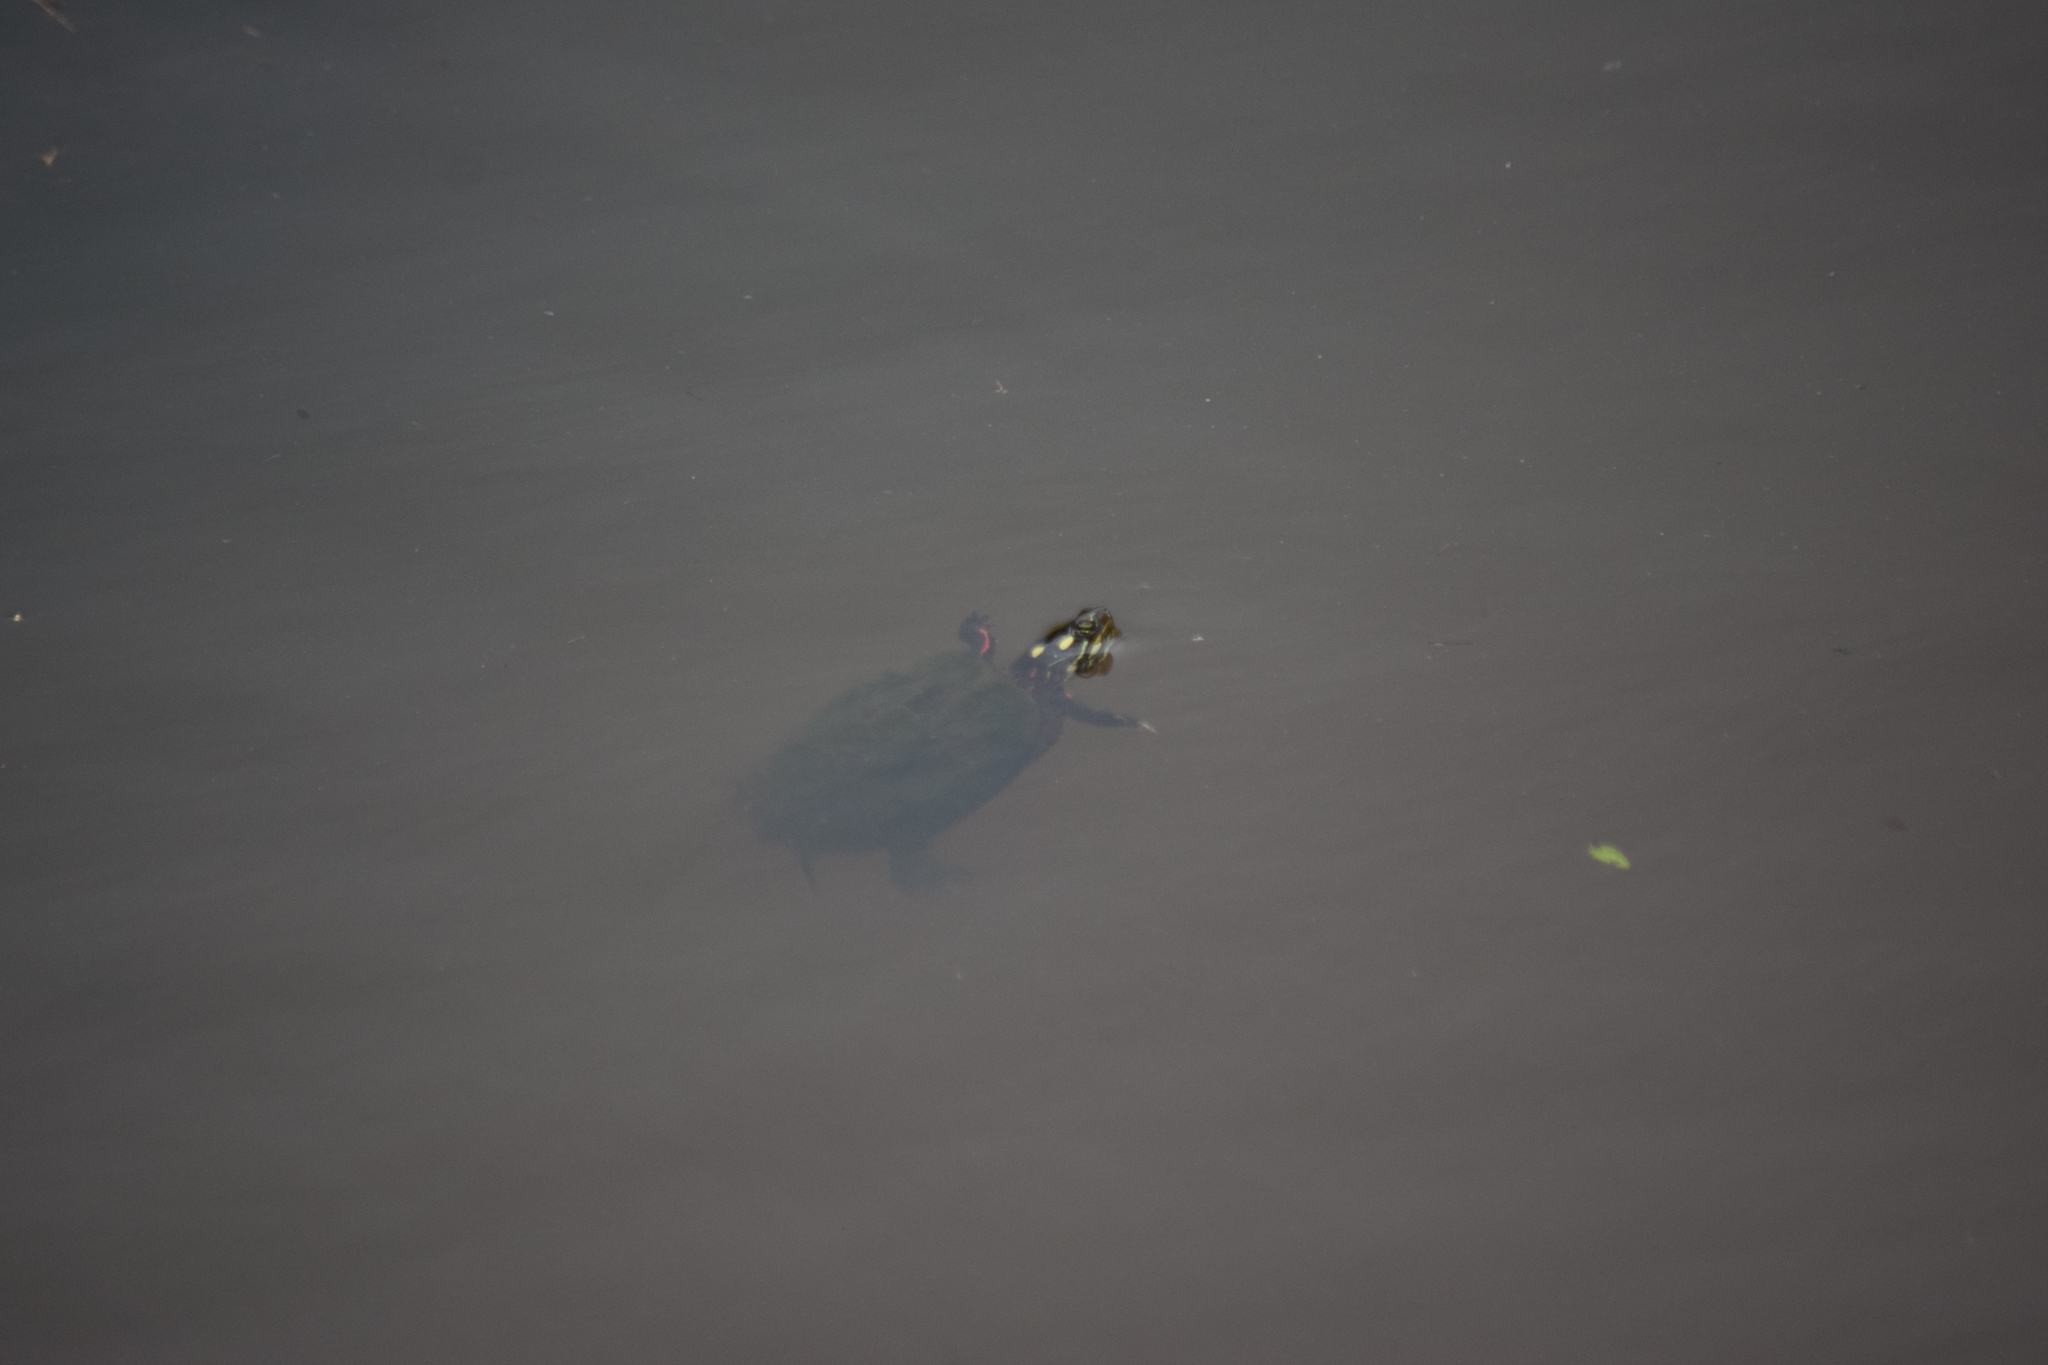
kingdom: Animalia
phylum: Chordata
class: Testudines
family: Emydidae
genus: Chrysemys
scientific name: Chrysemys picta
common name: Painted turtle
